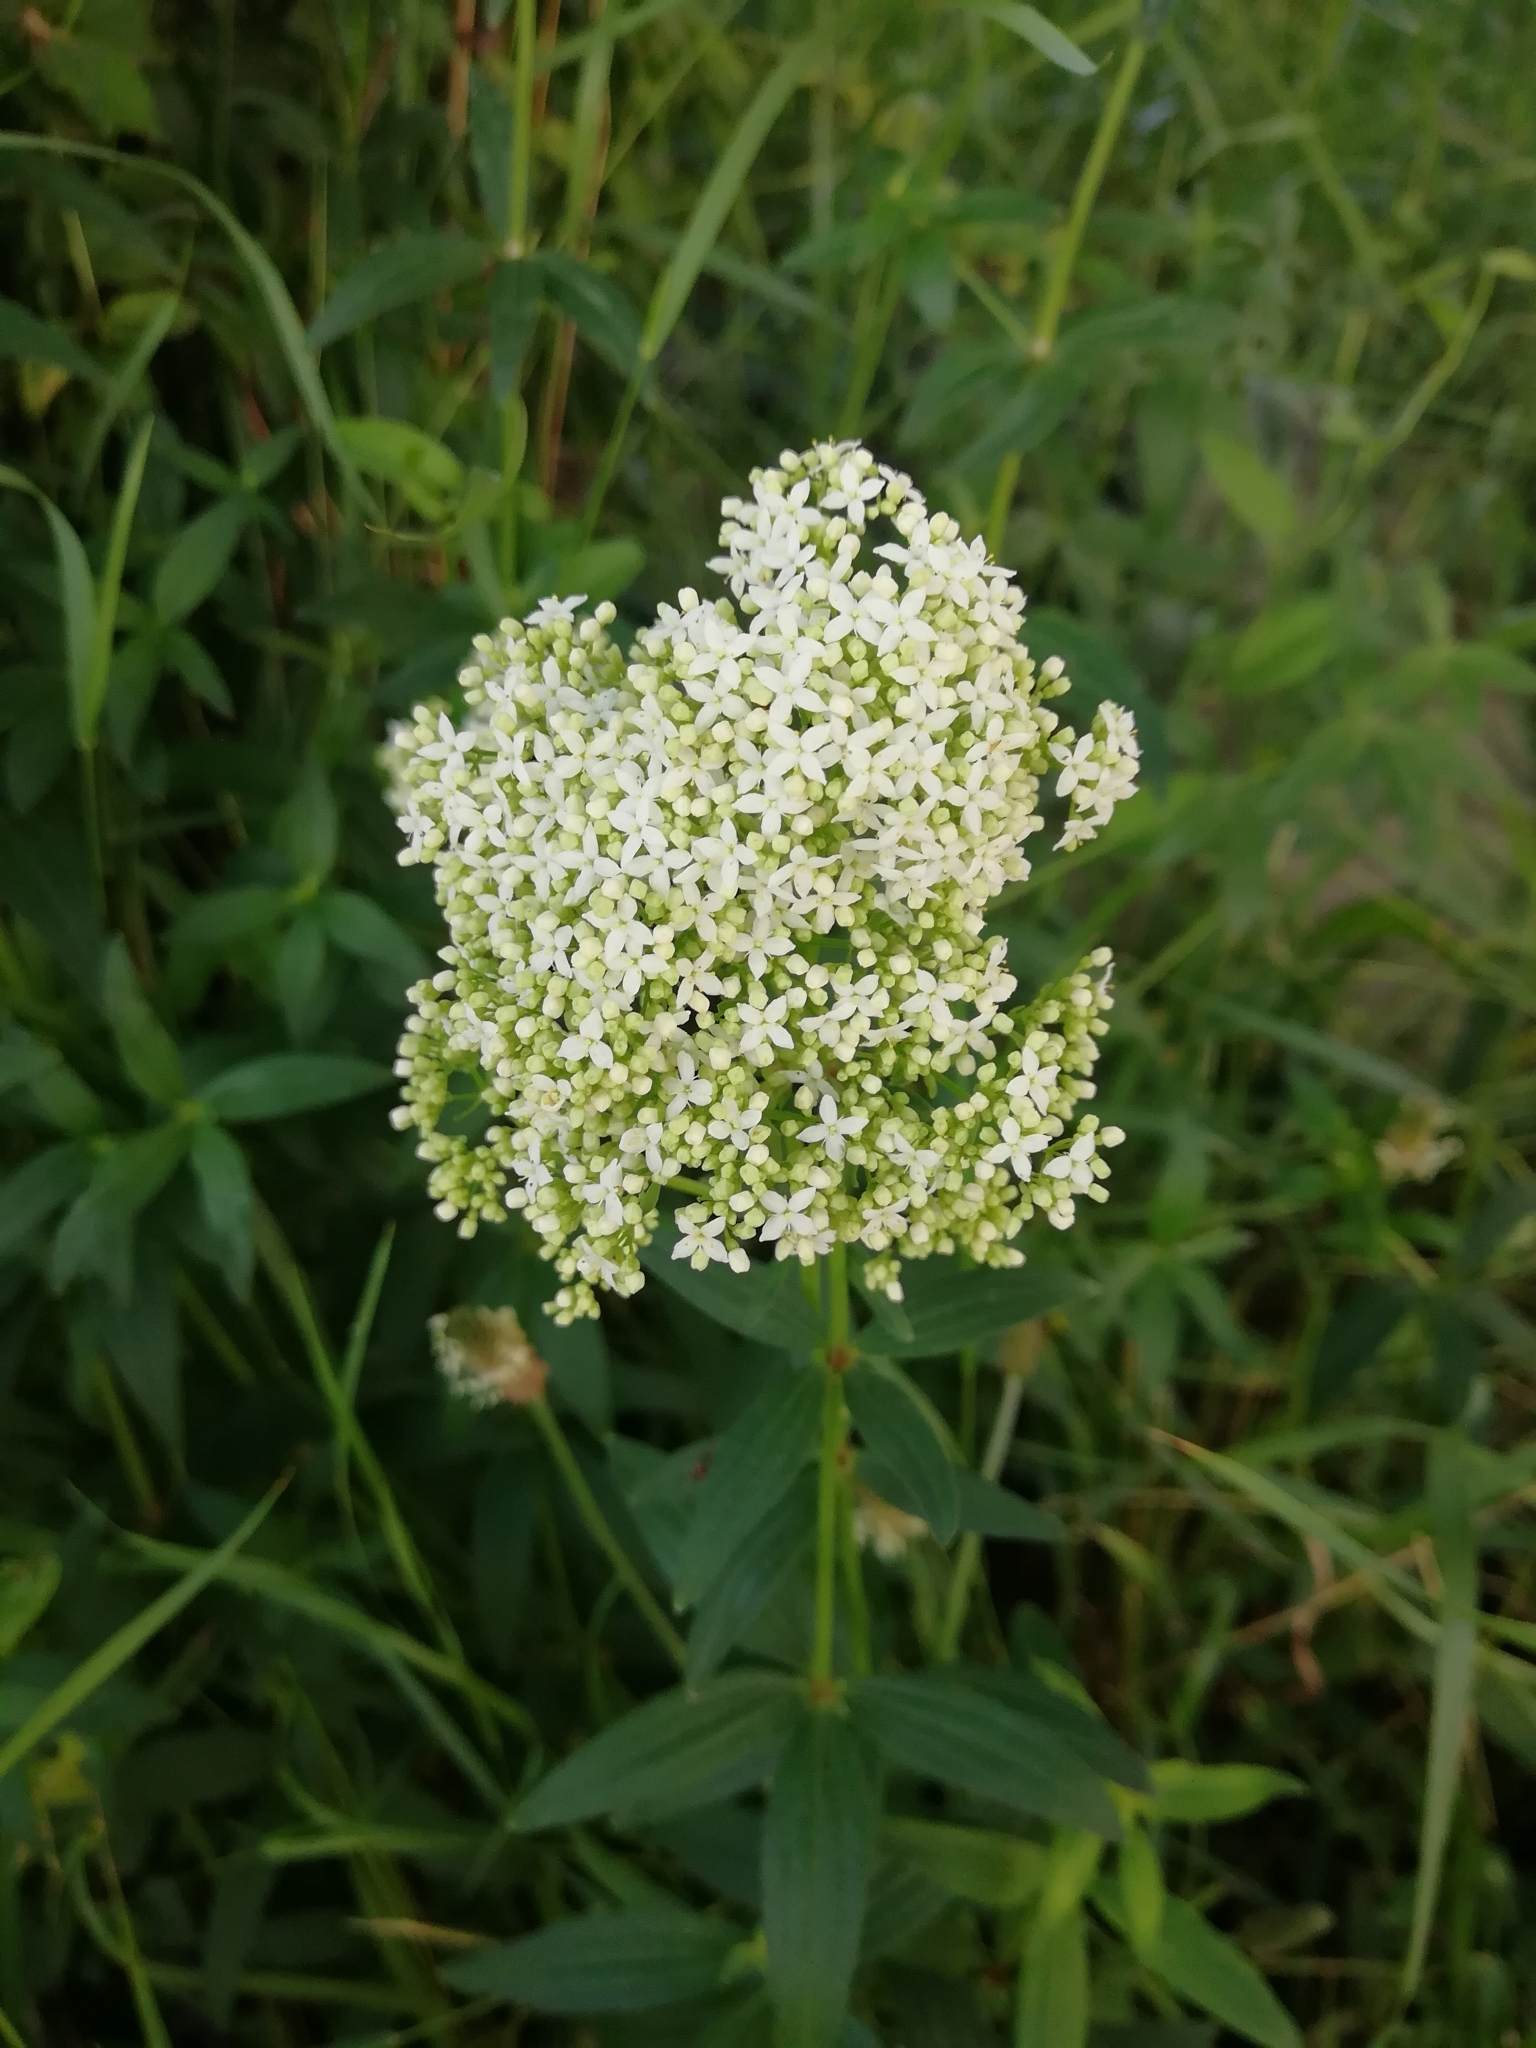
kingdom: Plantae
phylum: Tracheophyta
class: Magnoliopsida
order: Gentianales
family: Rubiaceae
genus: Galium
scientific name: Galium rubioides
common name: European bedstraw
